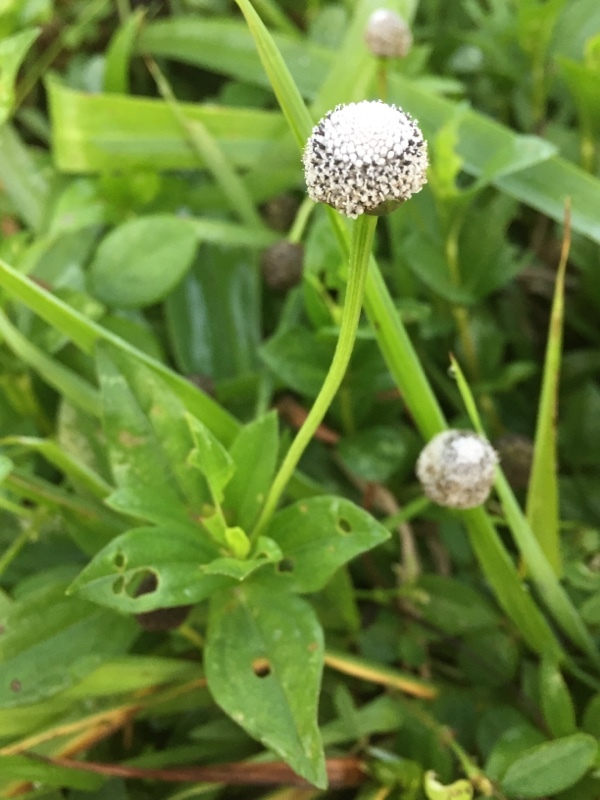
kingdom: Plantae
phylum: Tracheophyta
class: Magnoliopsida
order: Asterales
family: Asteraceae
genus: Spilanthes
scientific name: Spilanthes urens
